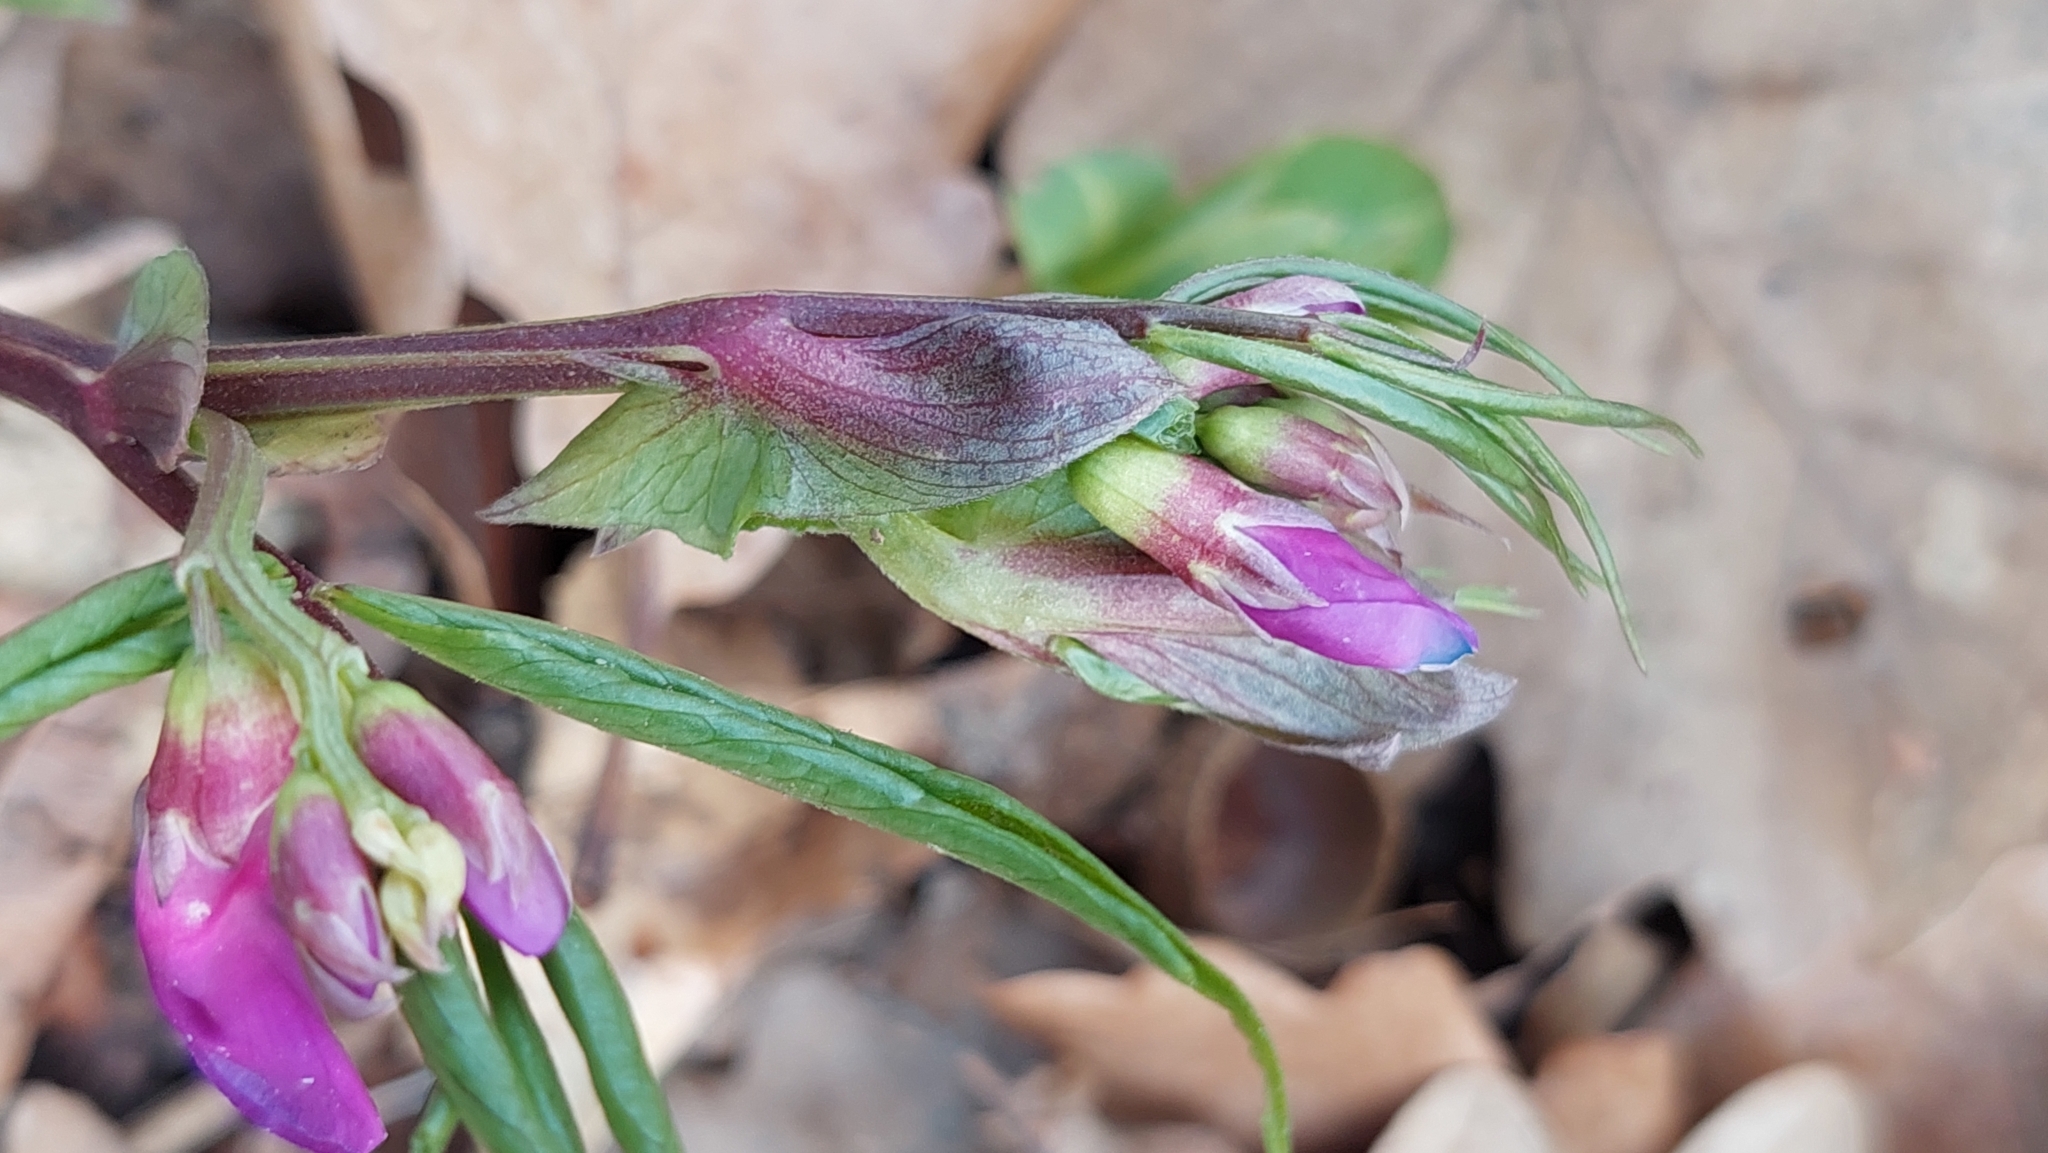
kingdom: Plantae
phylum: Tracheophyta
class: Magnoliopsida
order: Fabales
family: Fabaceae
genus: Lathyrus
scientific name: Lathyrus vernus
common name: Spring pea
